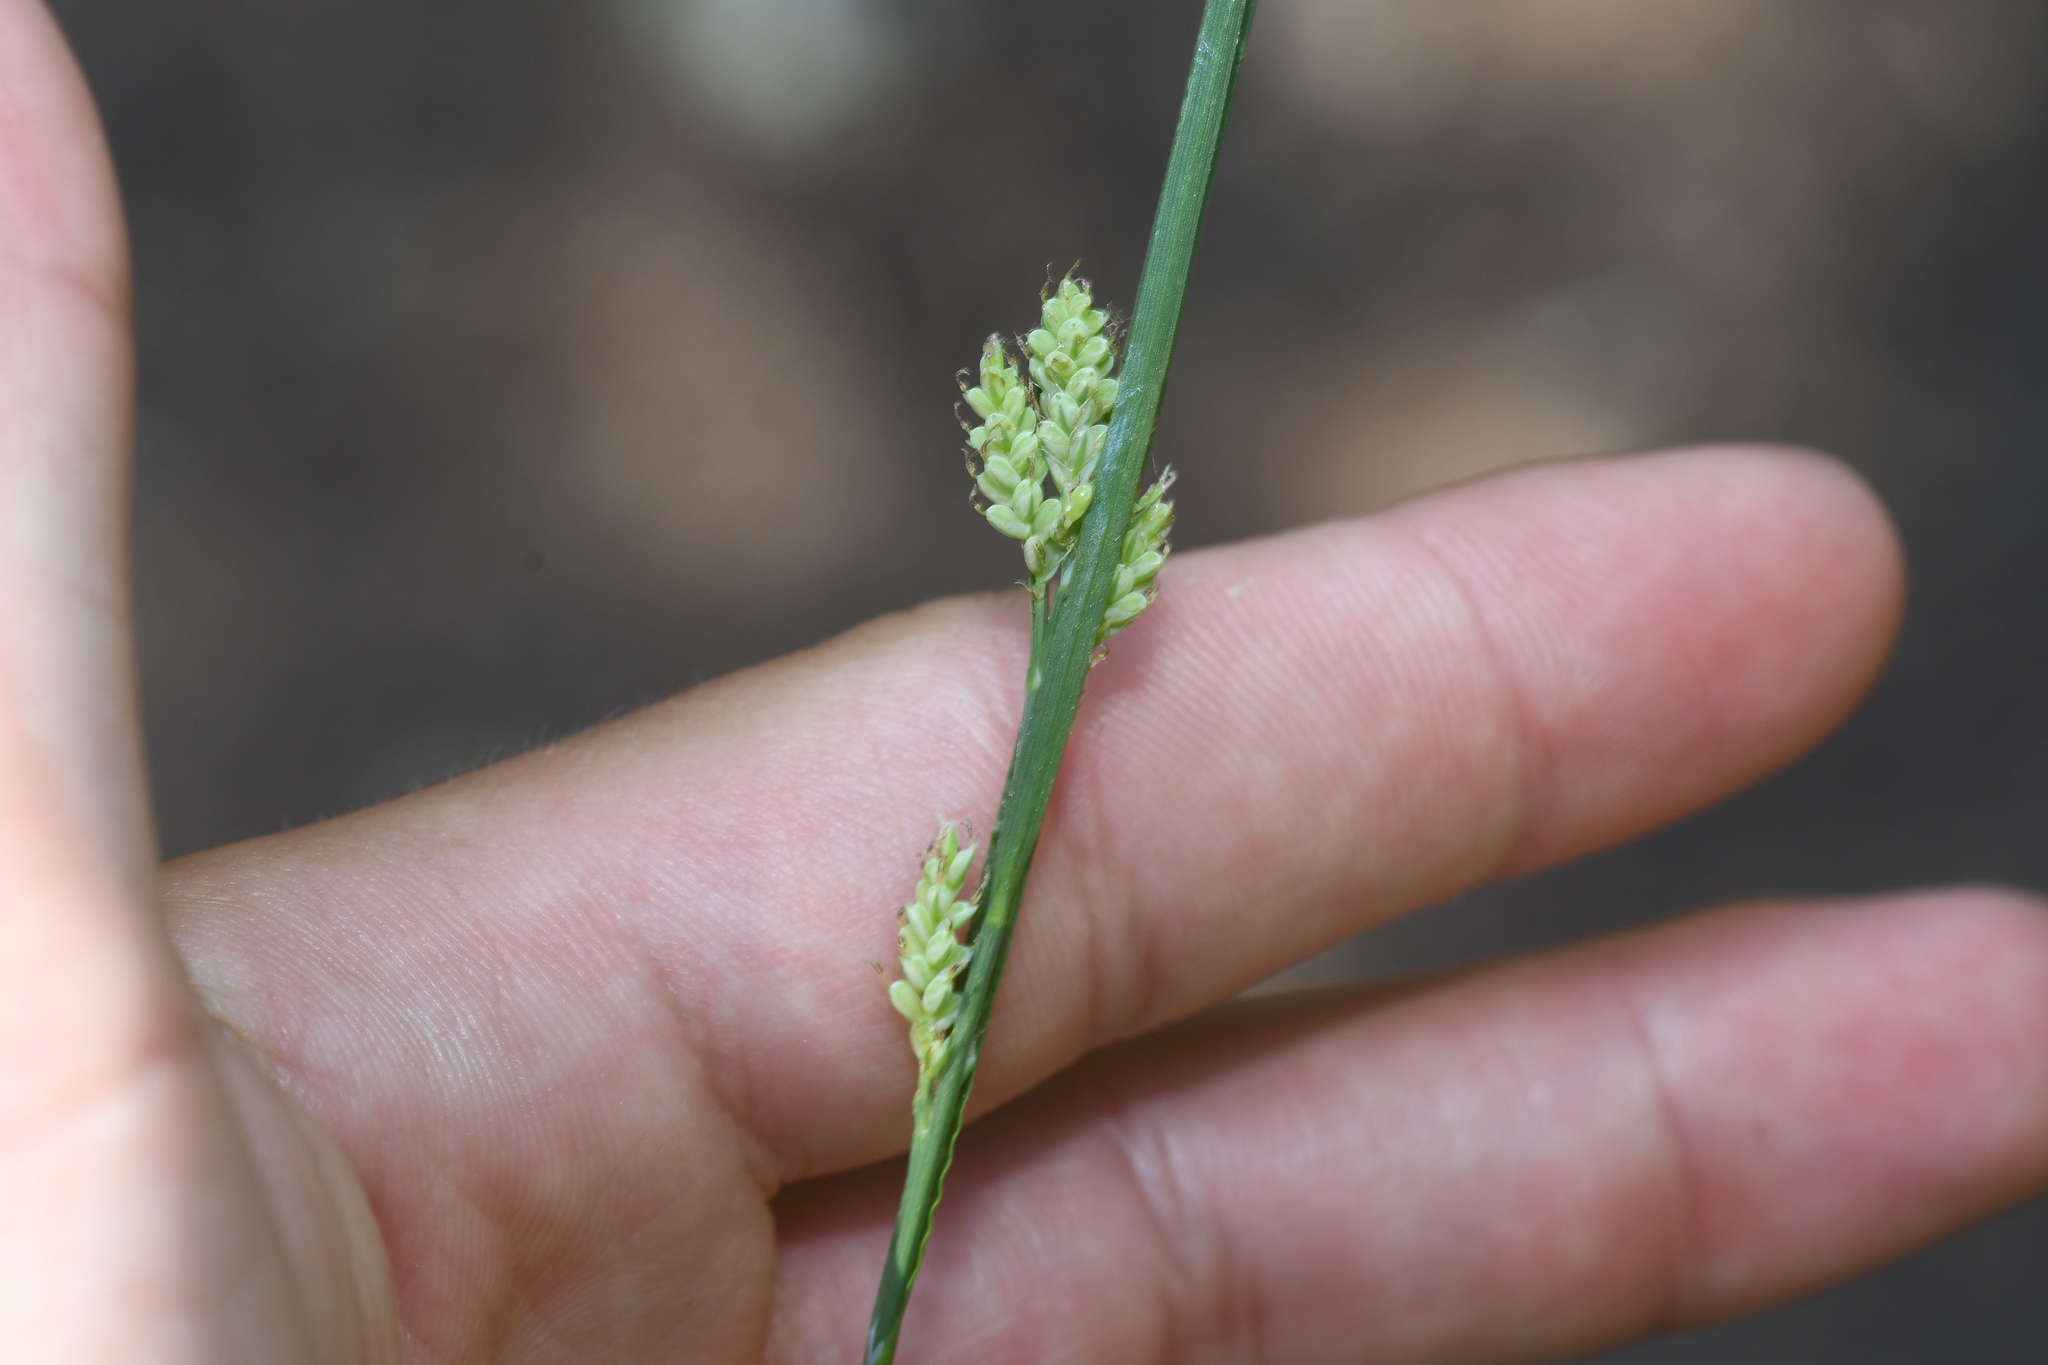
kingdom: Plantae
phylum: Tracheophyta
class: Liliopsida
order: Poales
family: Cyperaceae
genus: Carex
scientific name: Carex garberi
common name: Elk sedge
